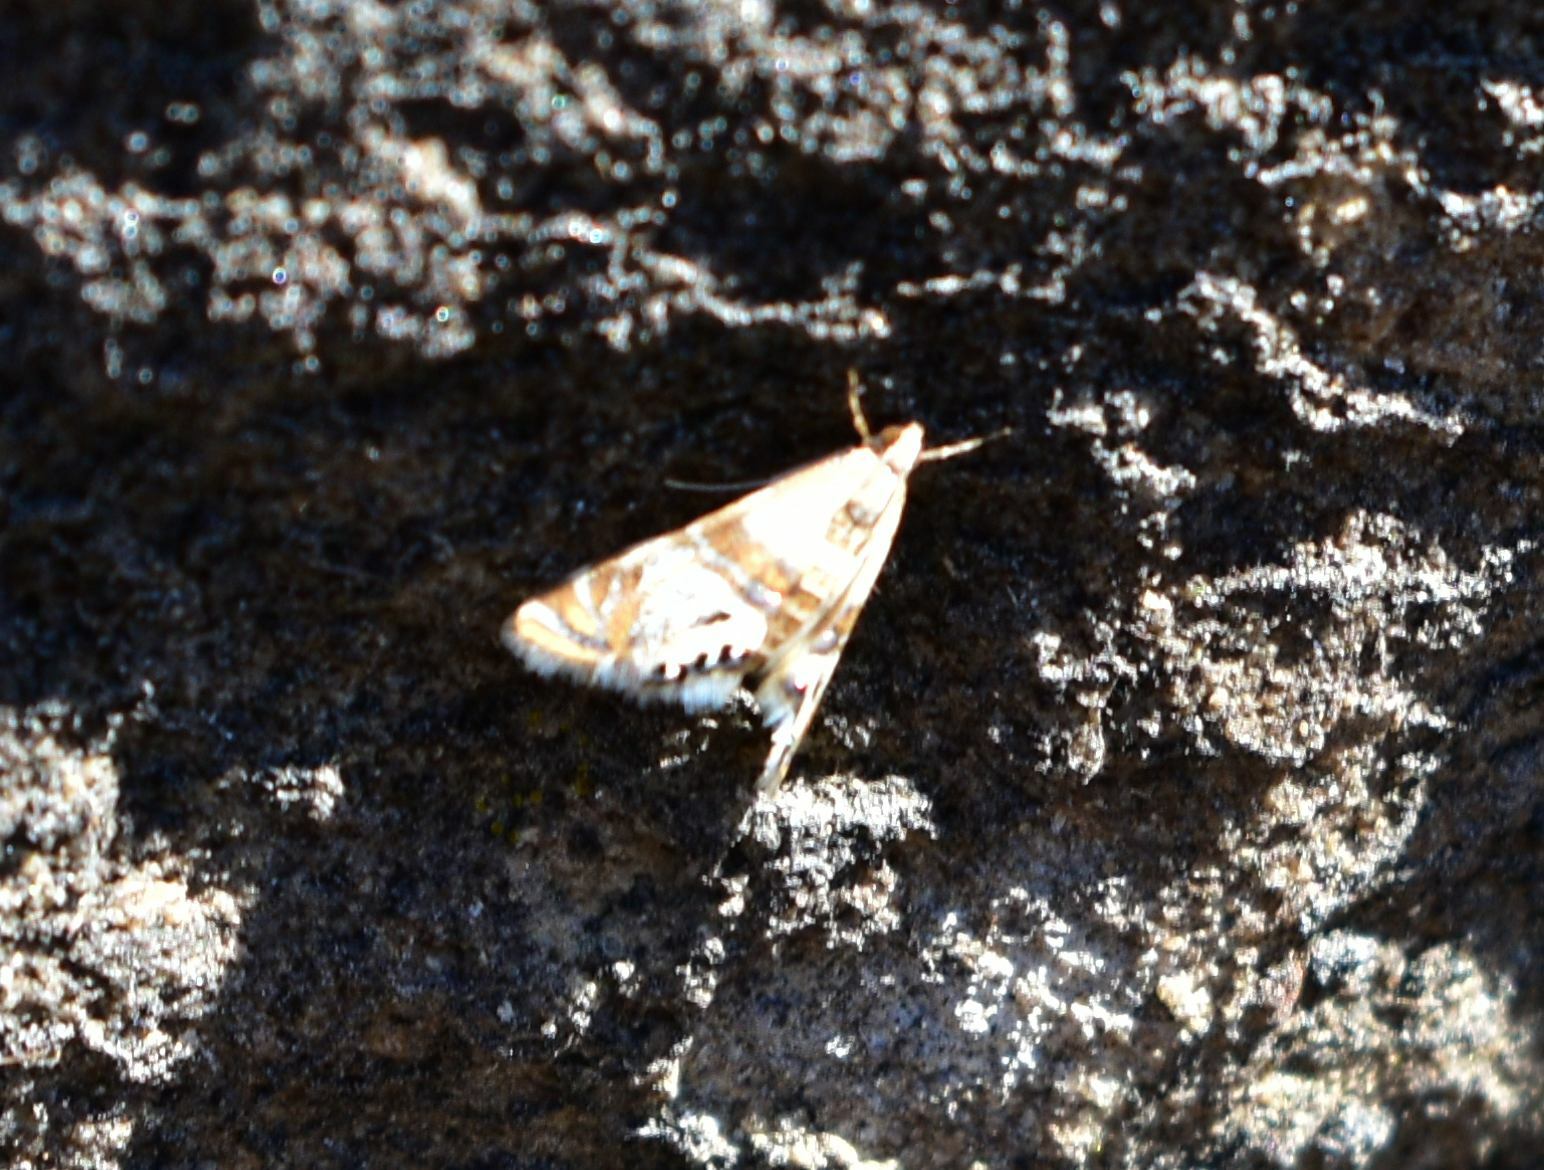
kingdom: Animalia
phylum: Arthropoda
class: Insecta
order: Lepidoptera
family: Crambidae
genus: Petrophila
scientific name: Petrophila bifascialis
